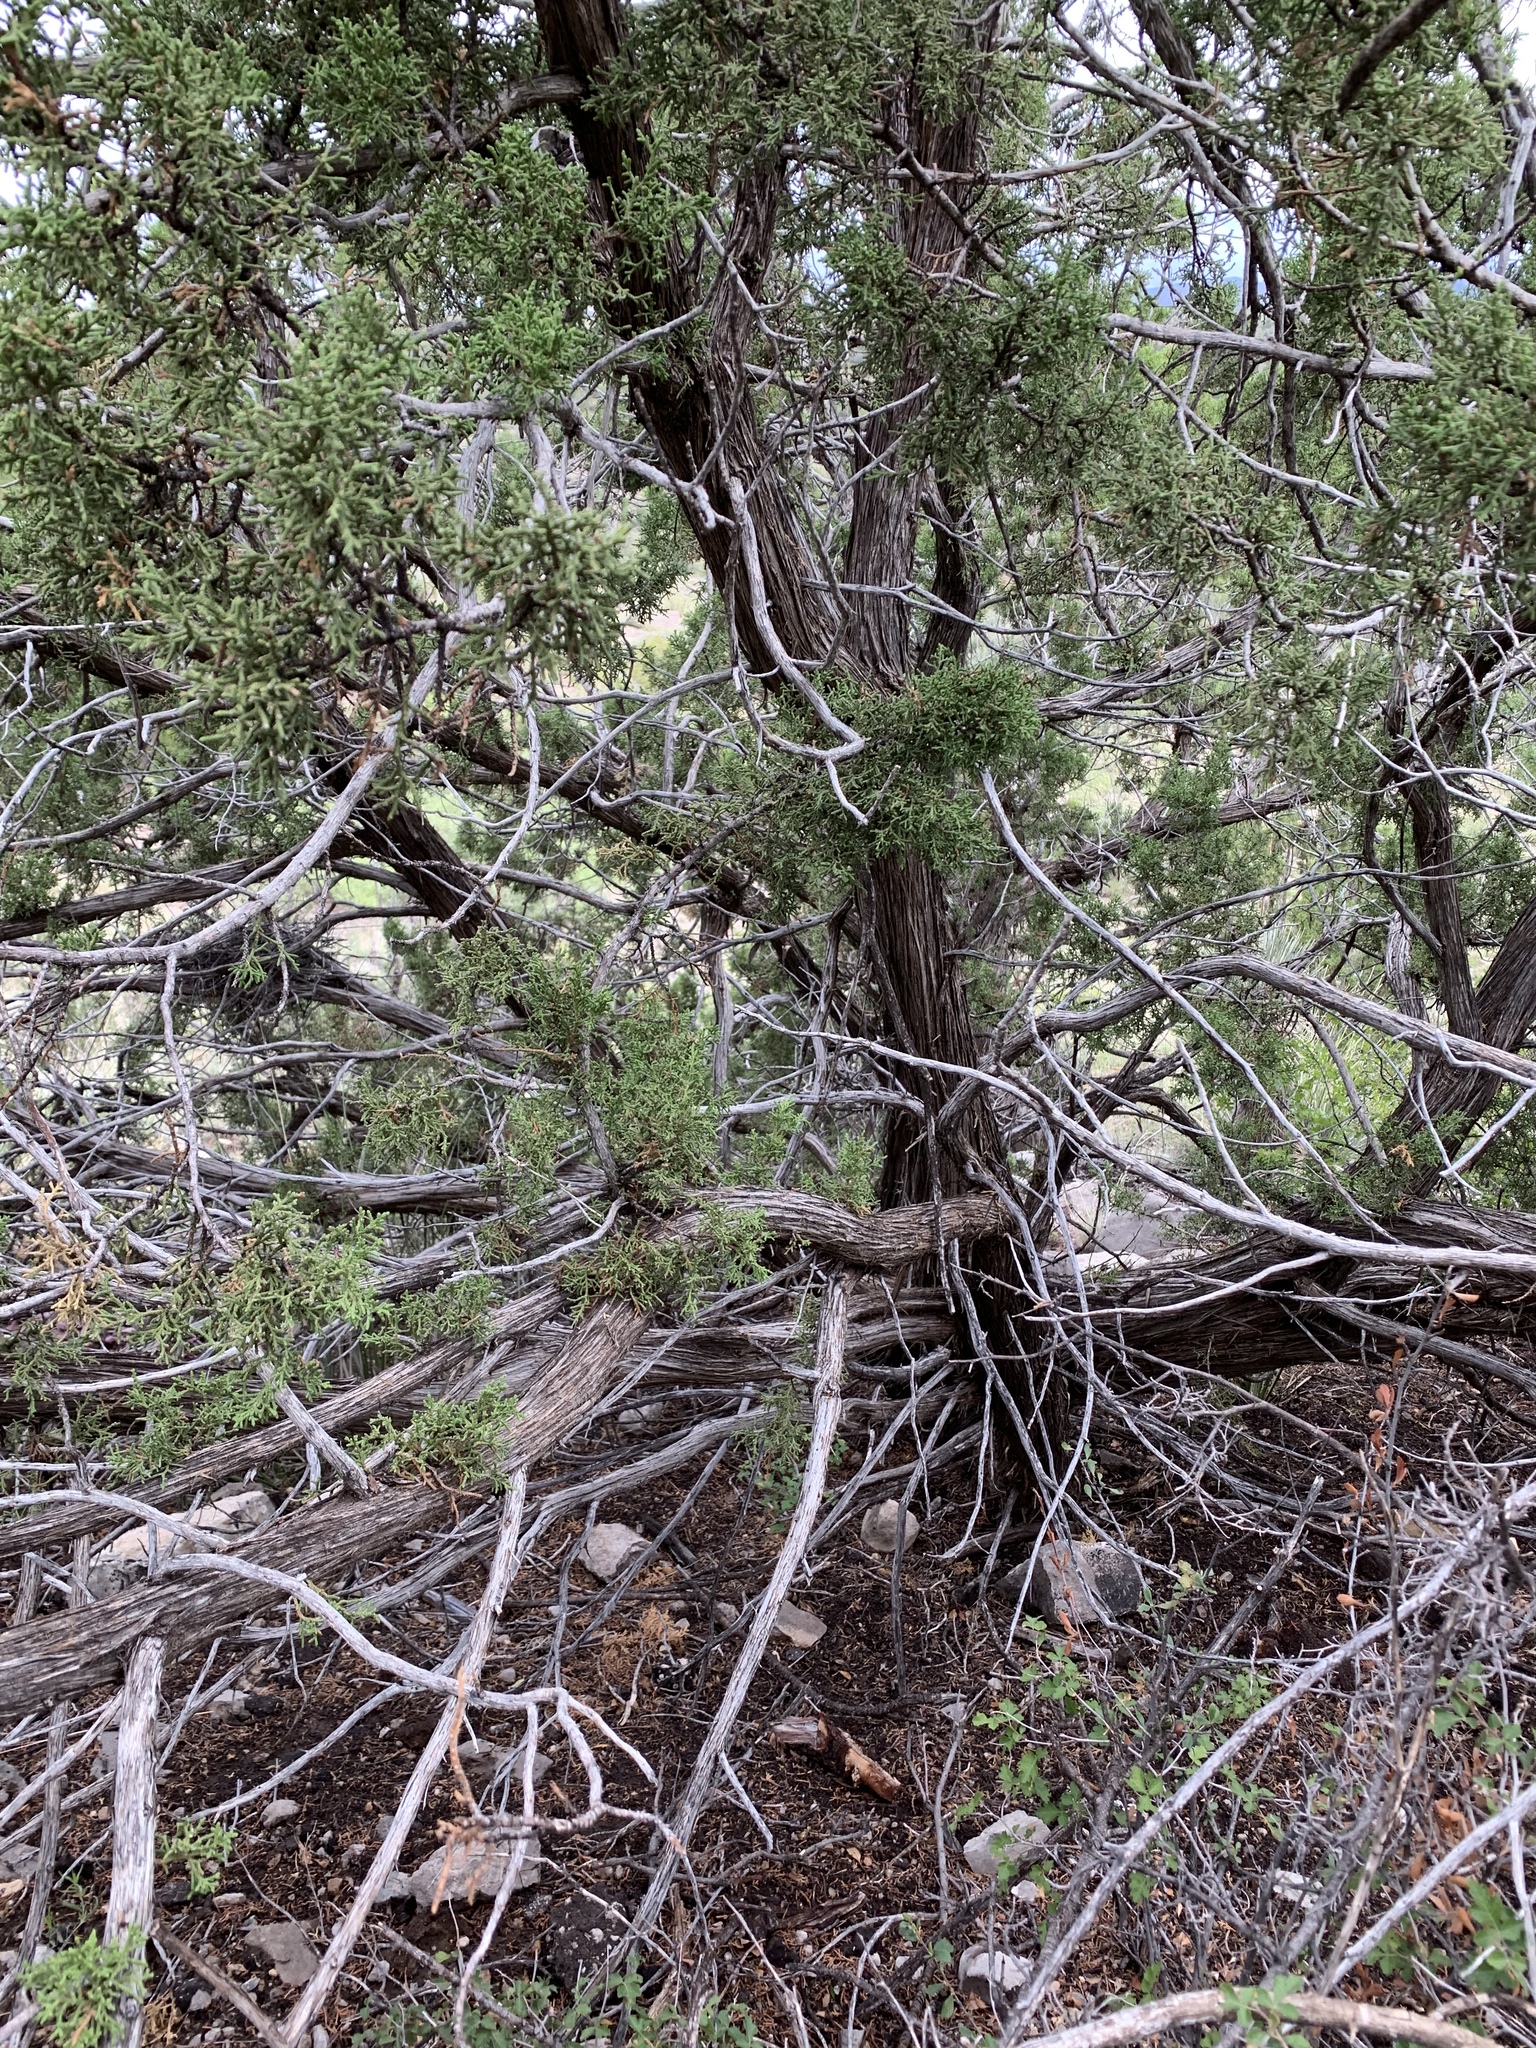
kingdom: Plantae
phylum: Tracheophyta
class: Pinopsida
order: Pinales
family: Cupressaceae
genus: Juniperus
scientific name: Juniperus monosperma
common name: One-seed juniper
